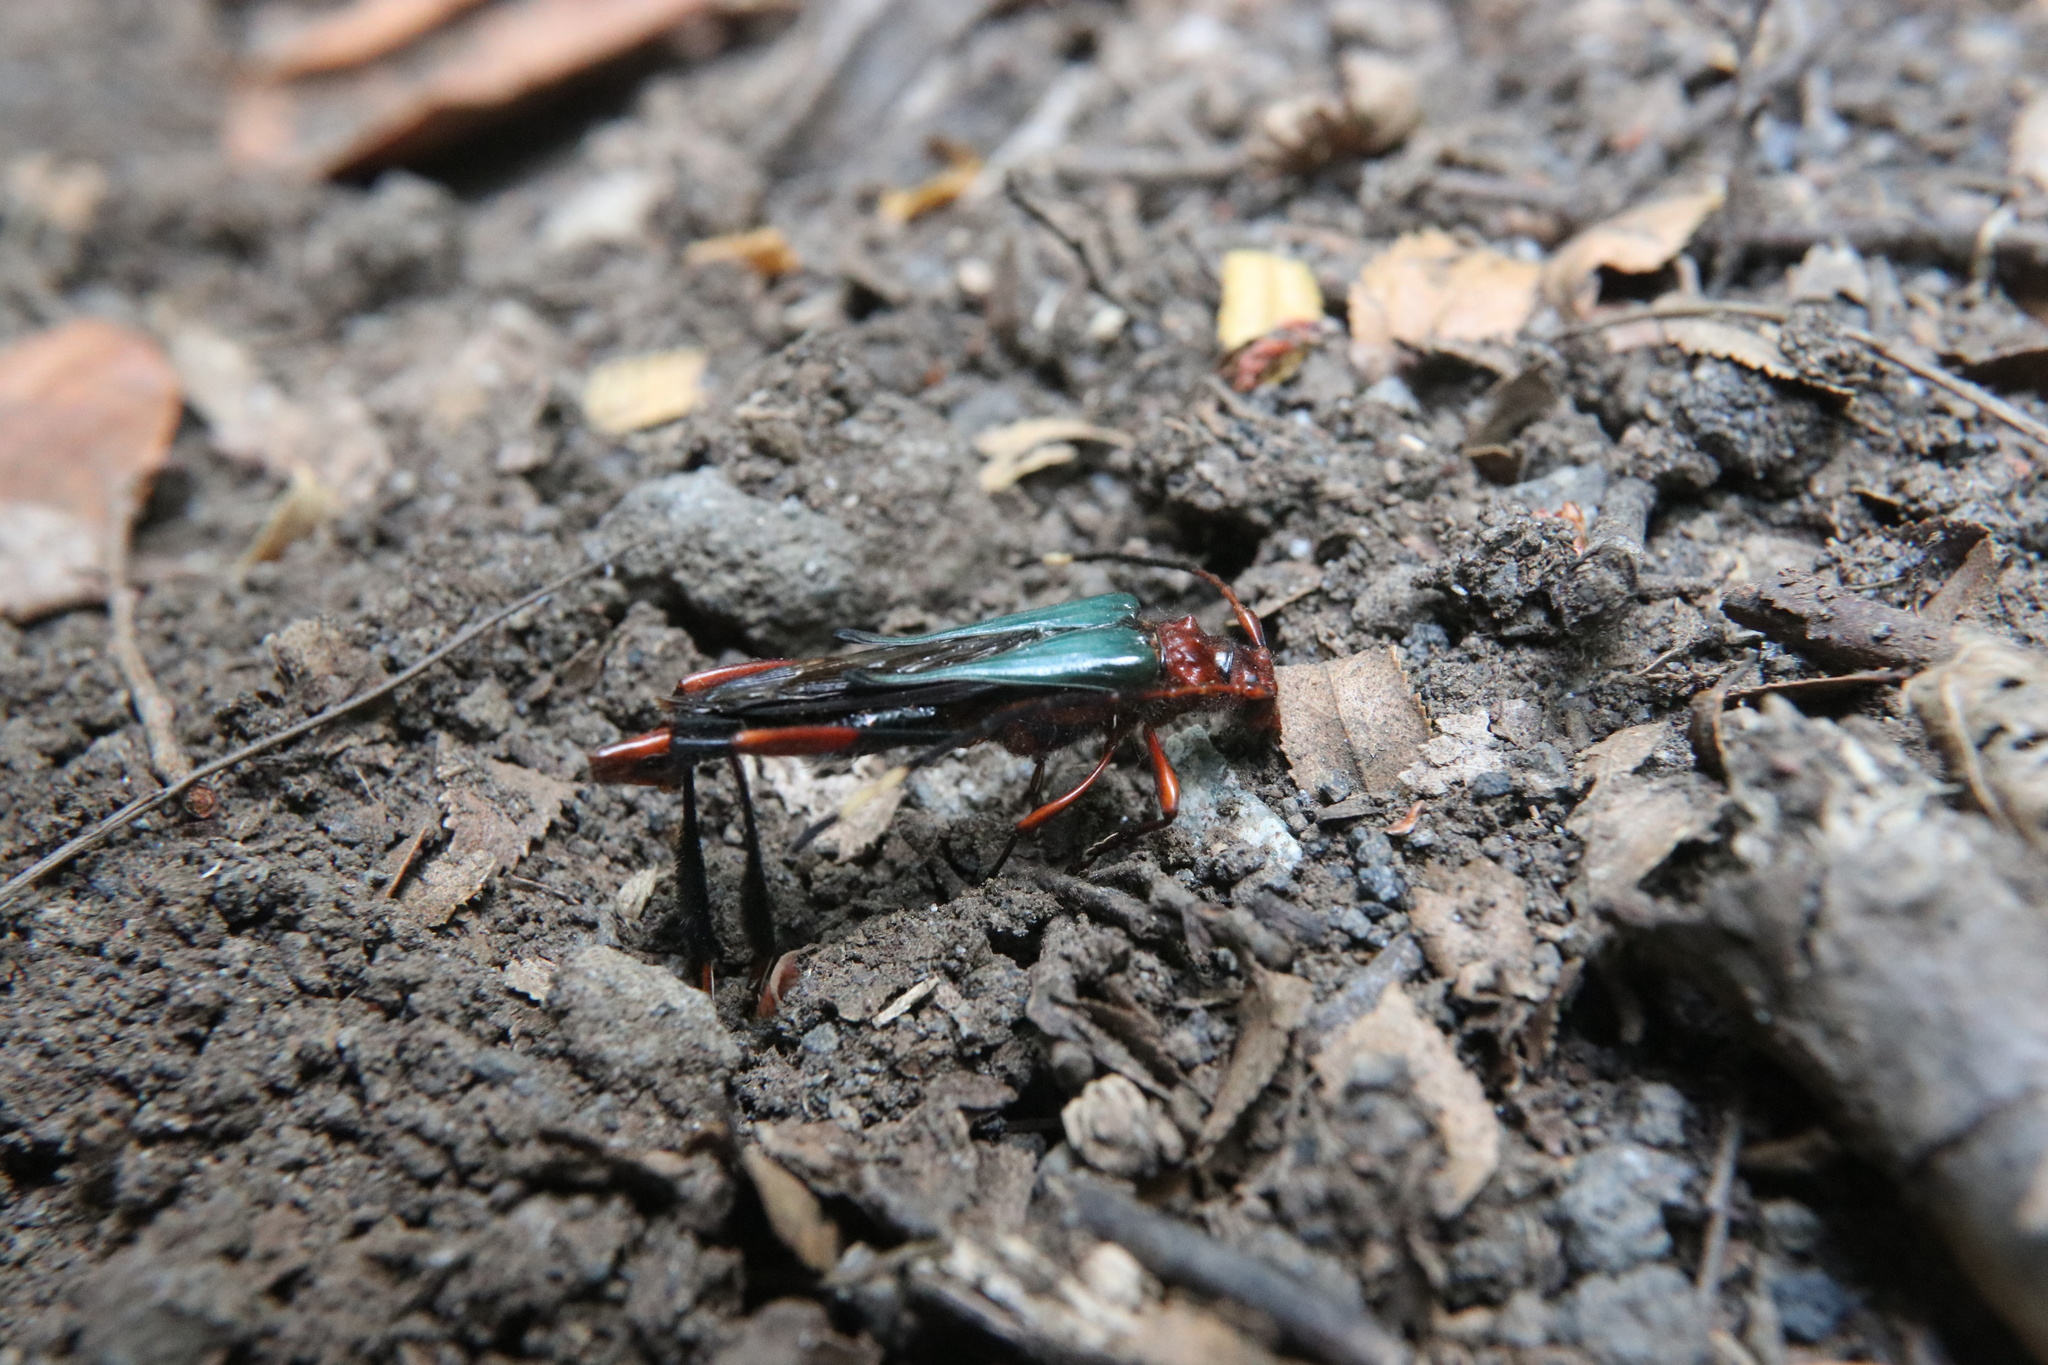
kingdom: Animalia
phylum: Arthropoda
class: Insecta
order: Coleoptera
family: Cerambycidae
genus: Planopus
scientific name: Planopus laniniensis
